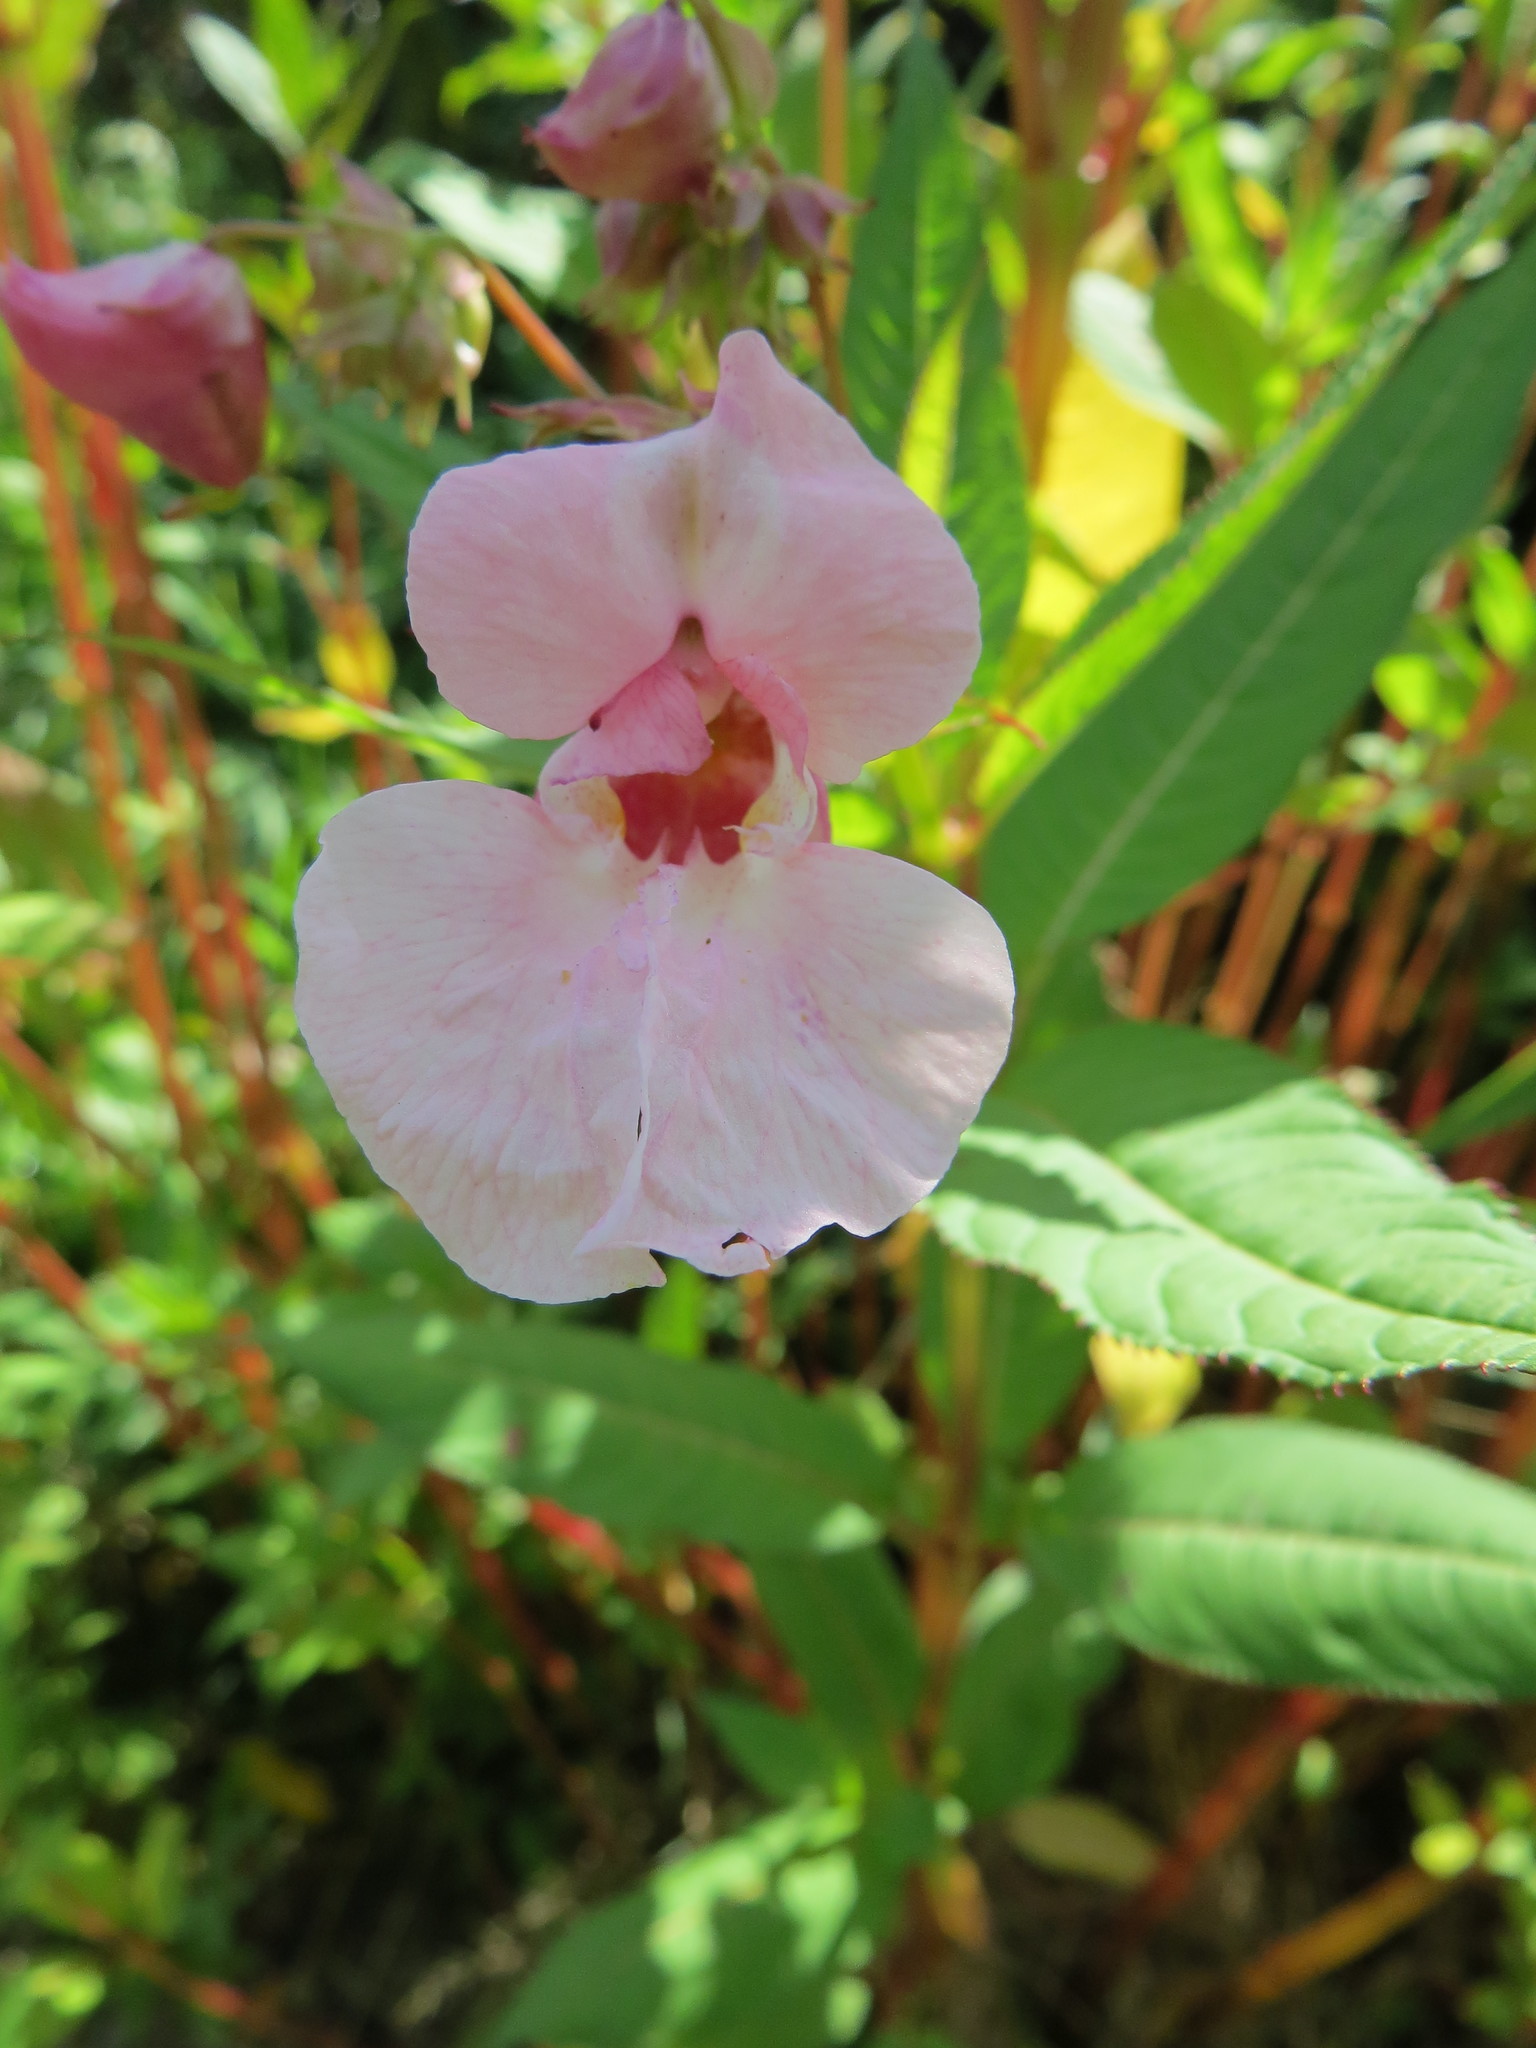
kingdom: Plantae
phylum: Tracheophyta
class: Magnoliopsida
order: Ericales
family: Balsaminaceae
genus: Impatiens
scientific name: Impatiens glandulifera
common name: Himalayan balsam
